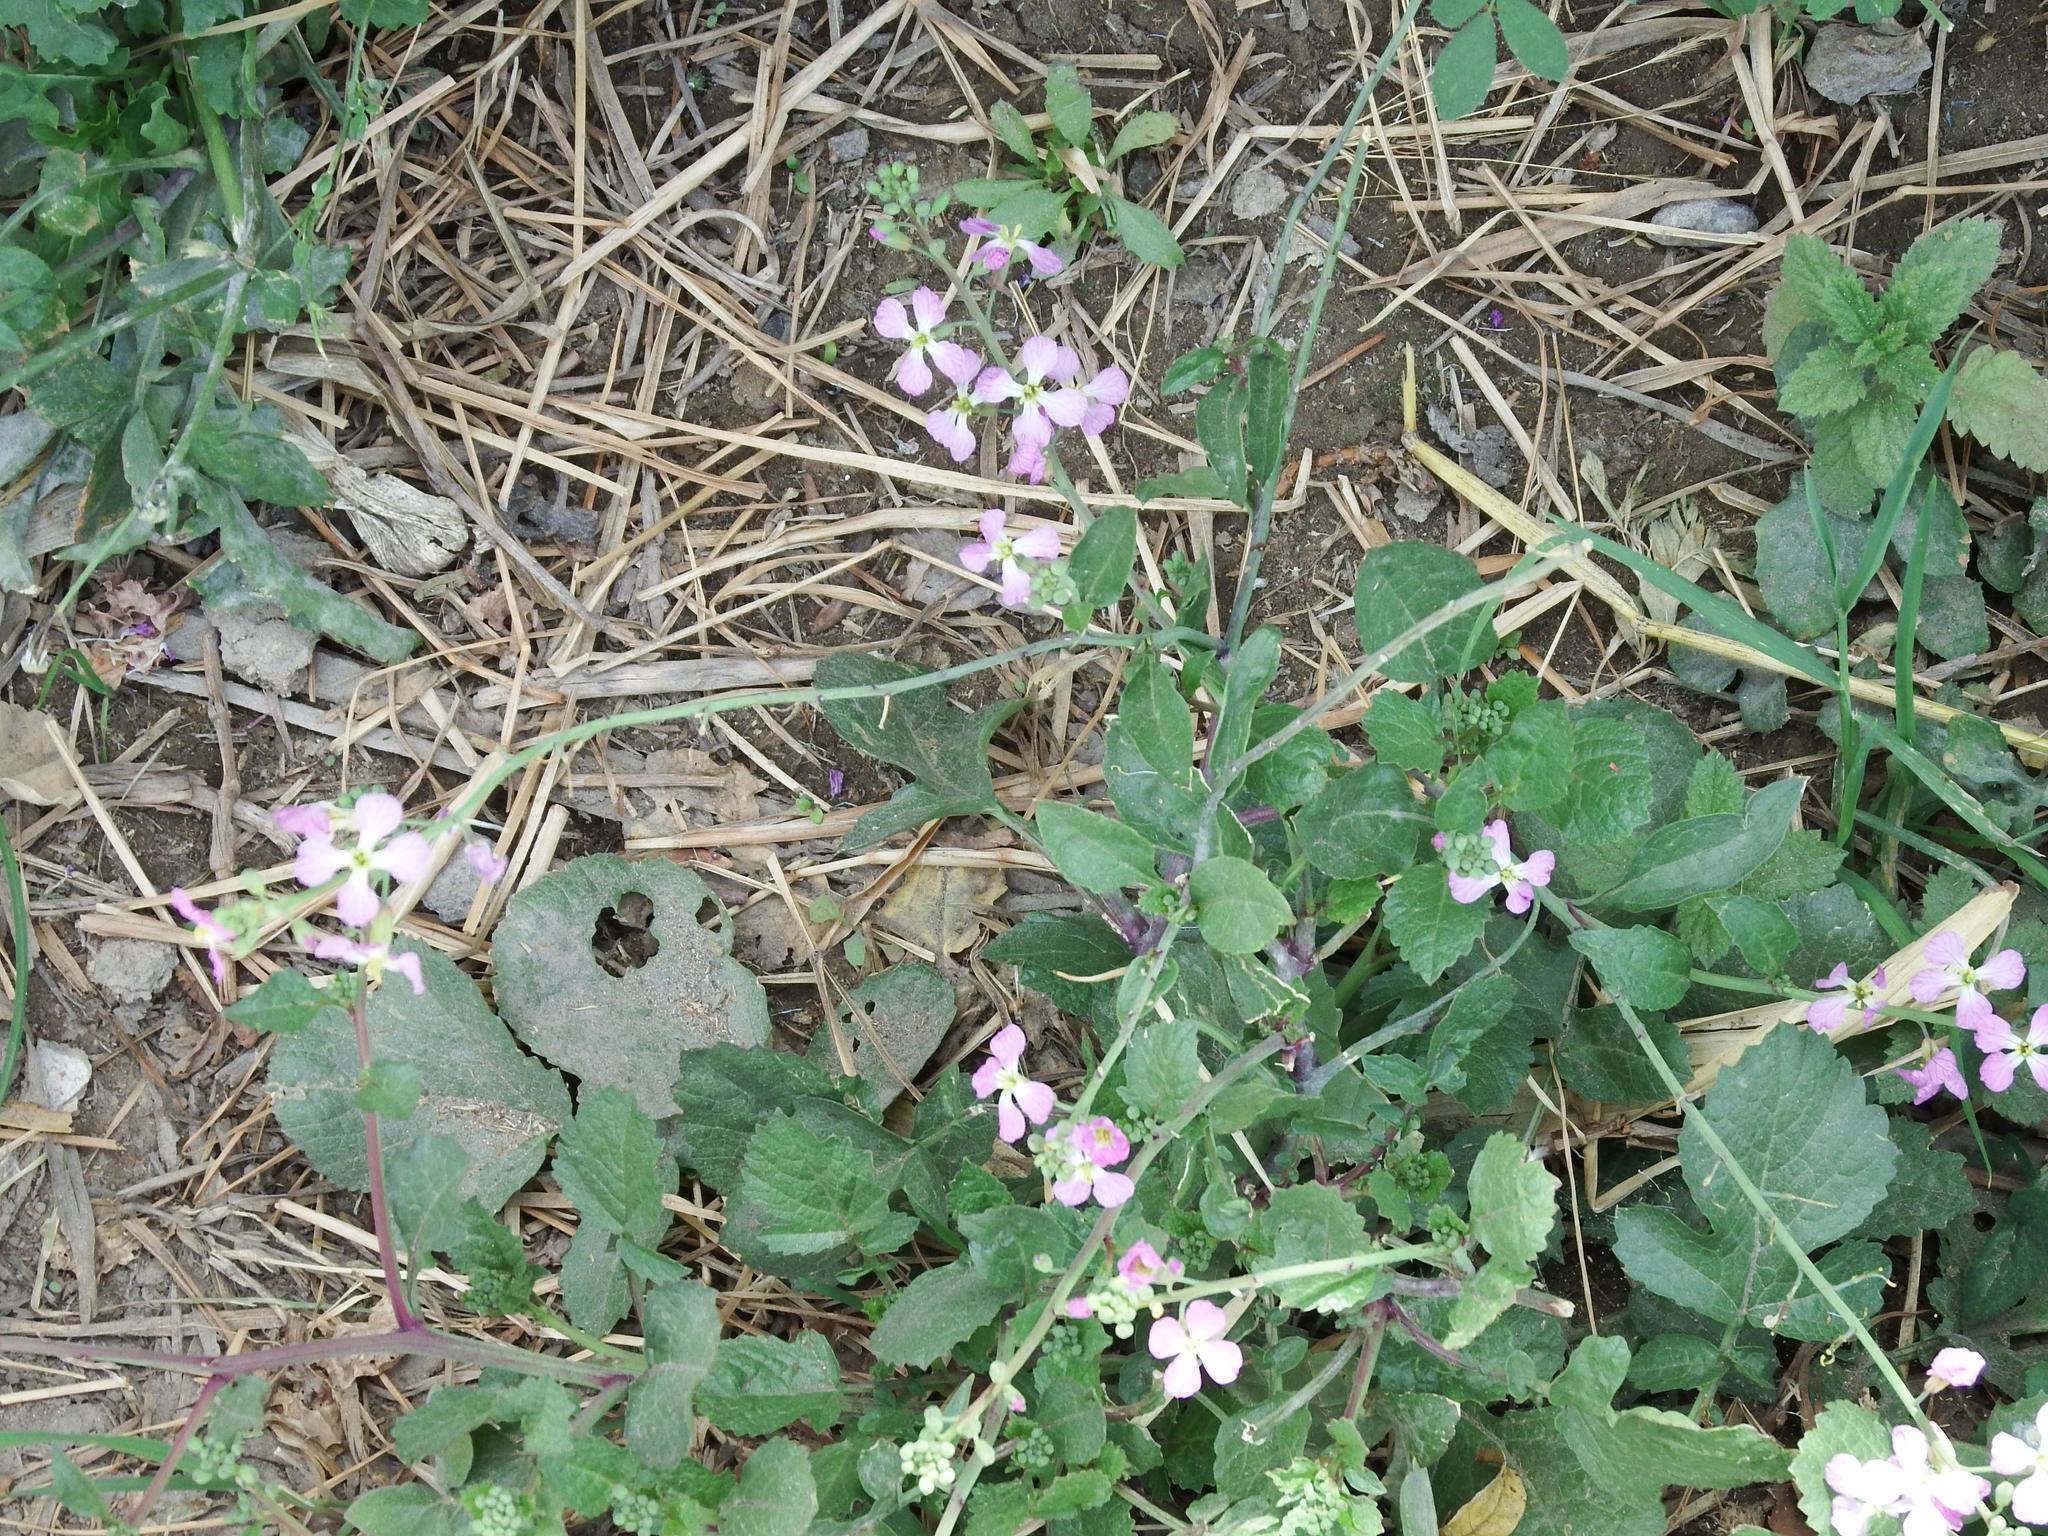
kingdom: Plantae
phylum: Tracheophyta
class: Magnoliopsida
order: Brassicales
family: Brassicaceae
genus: Raphanus
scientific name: Raphanus sativus
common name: Cultivated radish
